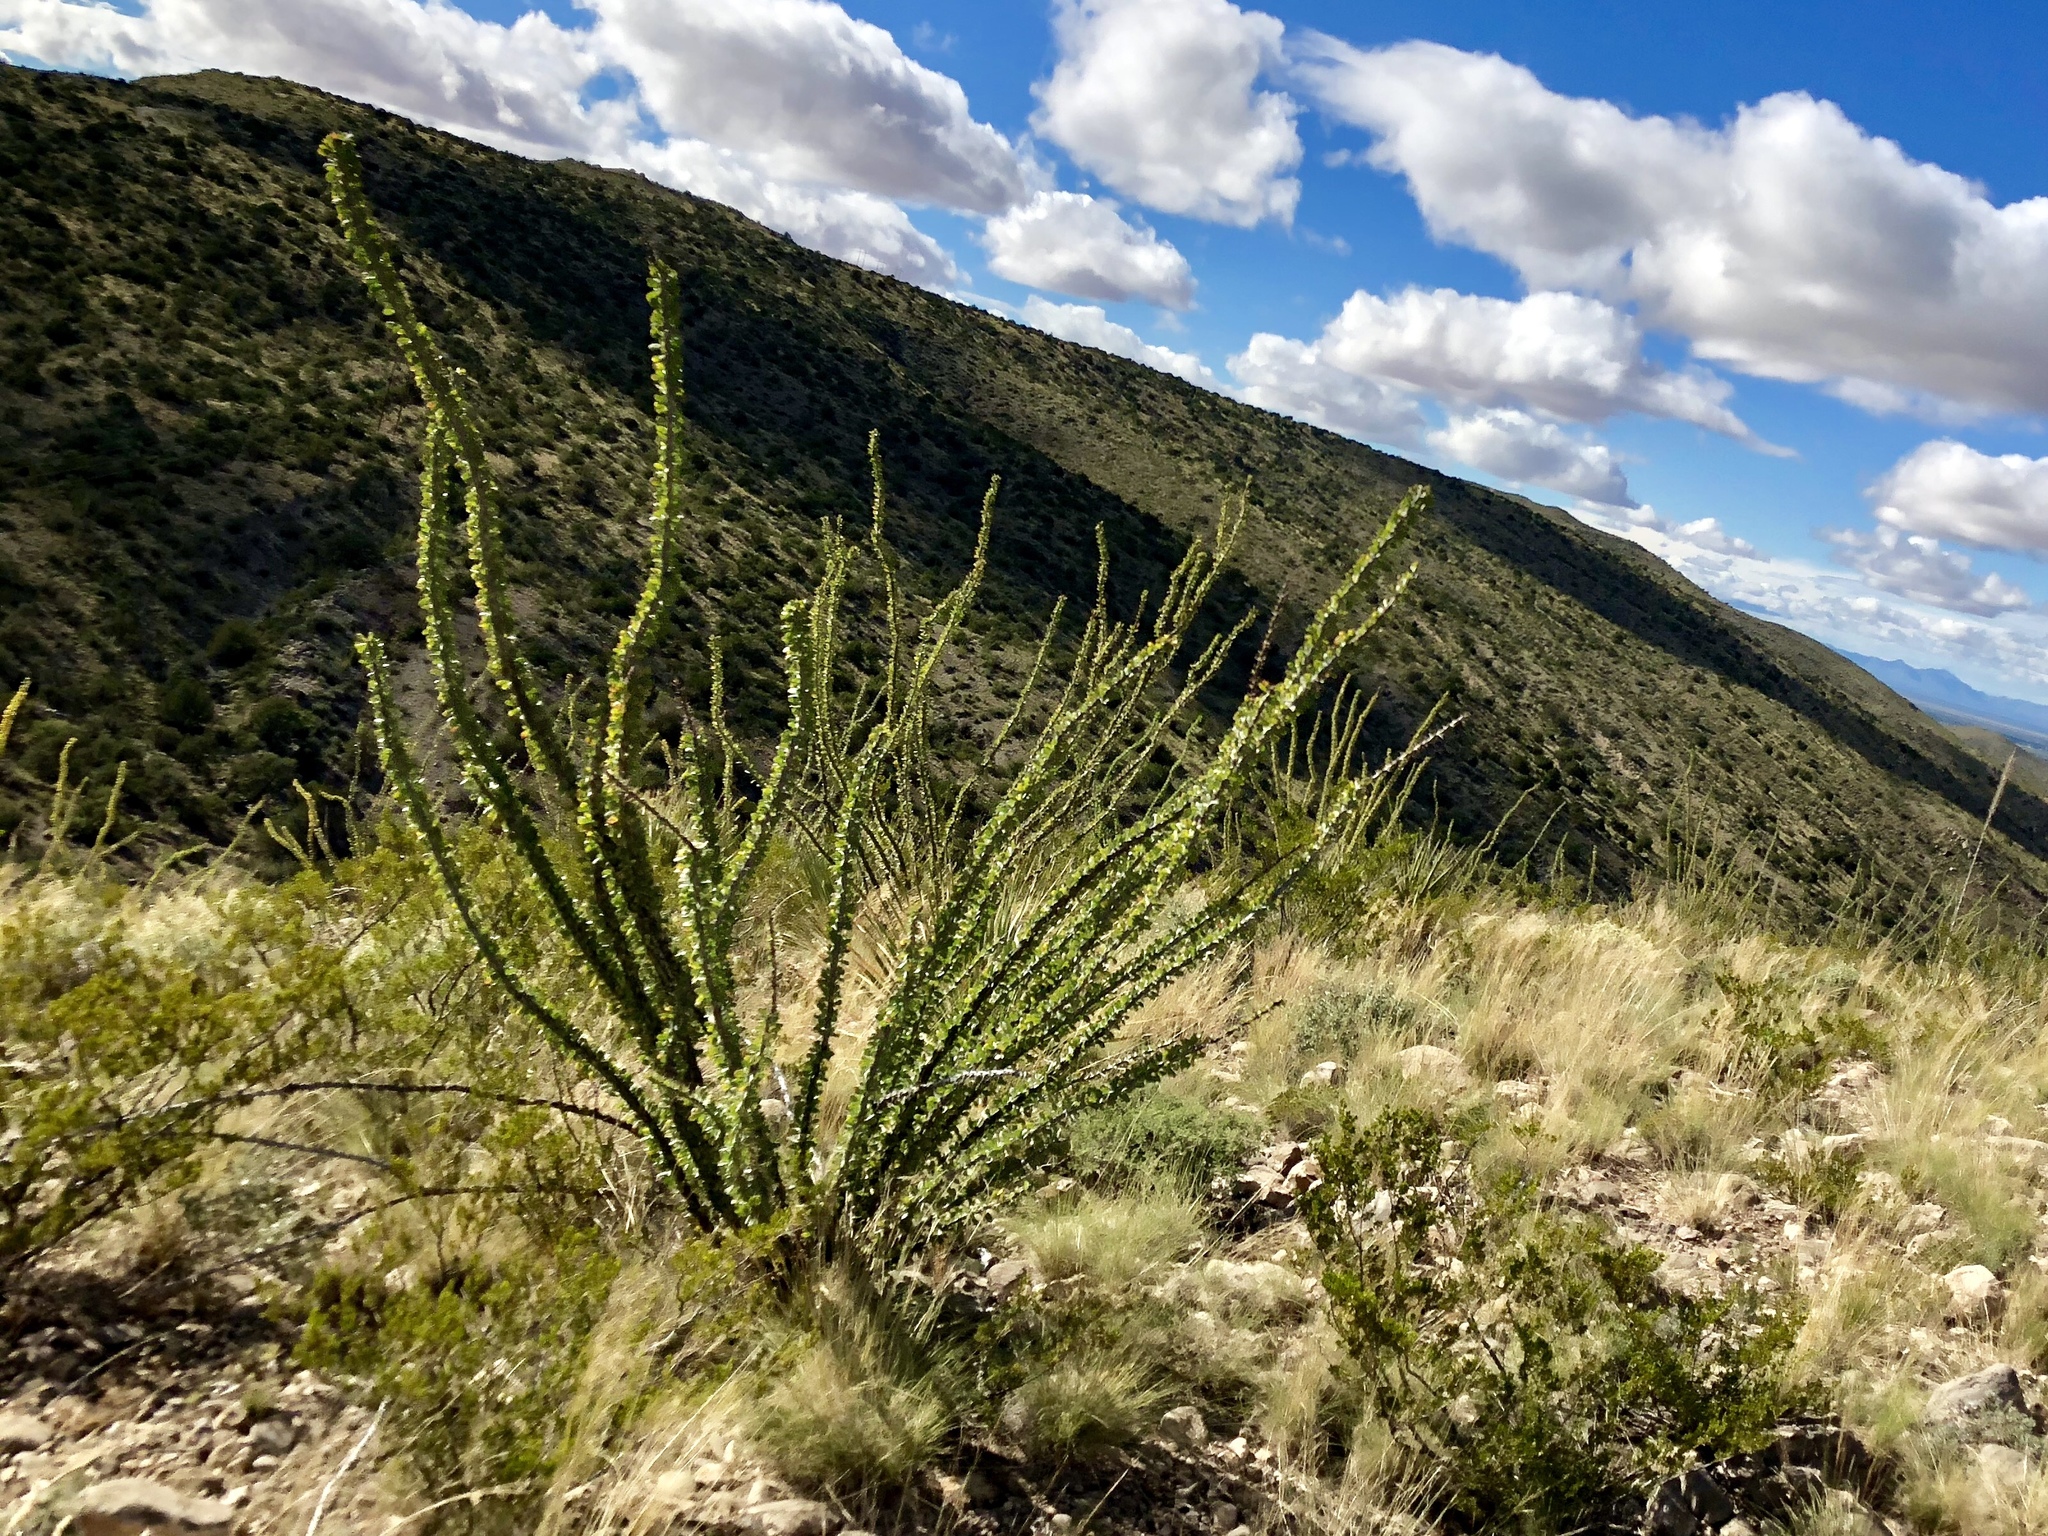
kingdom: Plantae
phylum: Tracheophyta
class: Magnoliopsida
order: Ericales
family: Fouquieriaceae
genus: Fouquieria
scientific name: Fouquieria splendens
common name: Vine-cactus
